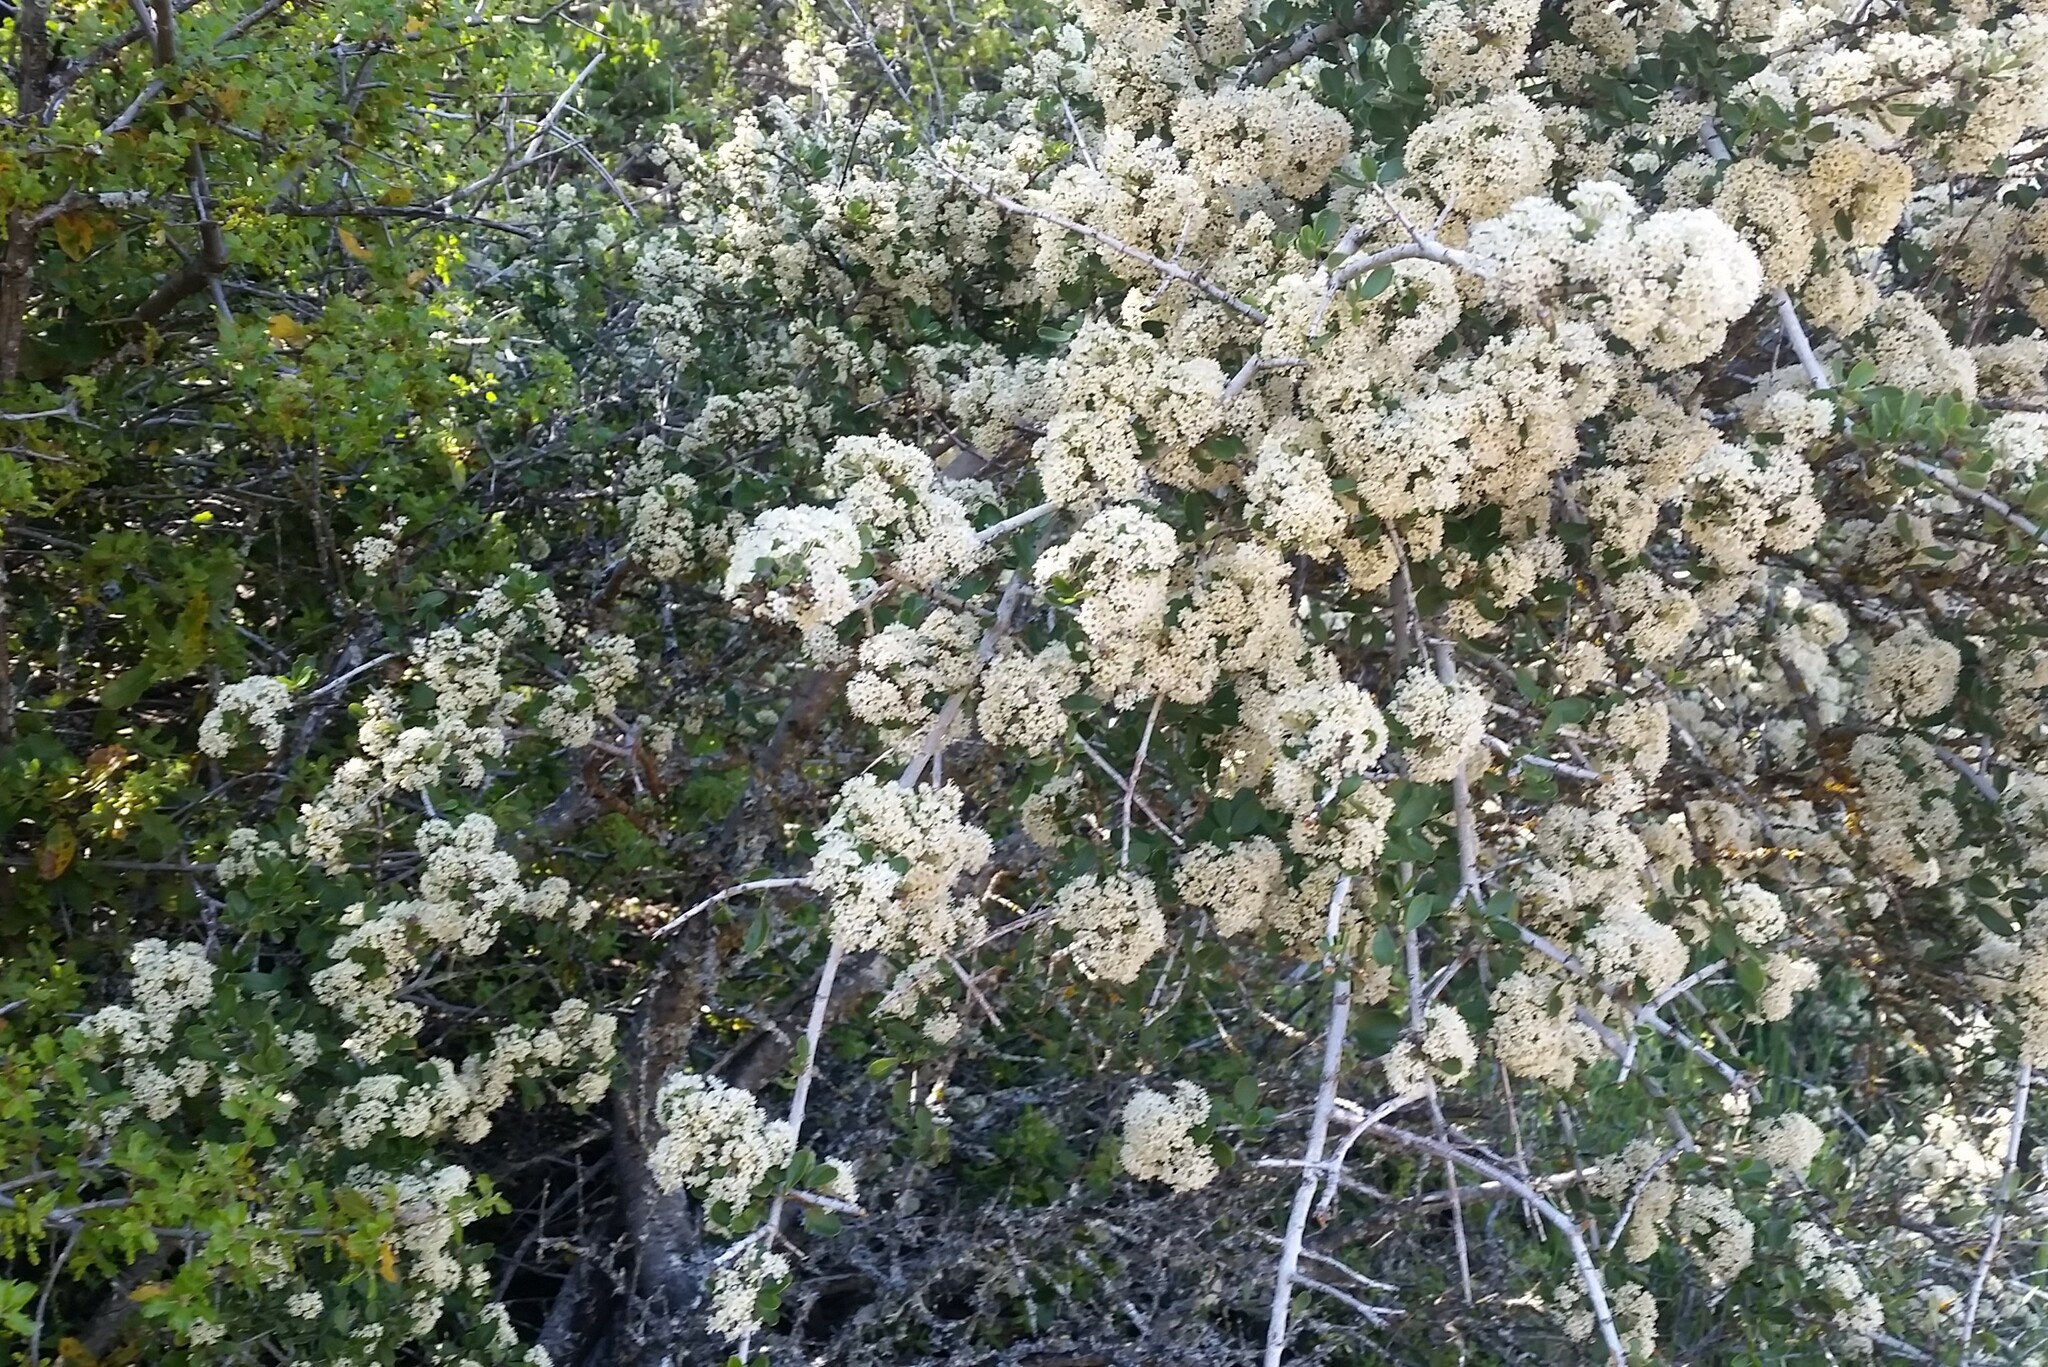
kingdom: Plantae
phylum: Tracheophyta
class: Magnoliopsida
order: Rosales
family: Rhamnaceae
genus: Ceanothus
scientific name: Ceanothus cuneatus
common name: Cuneate ceanothus
